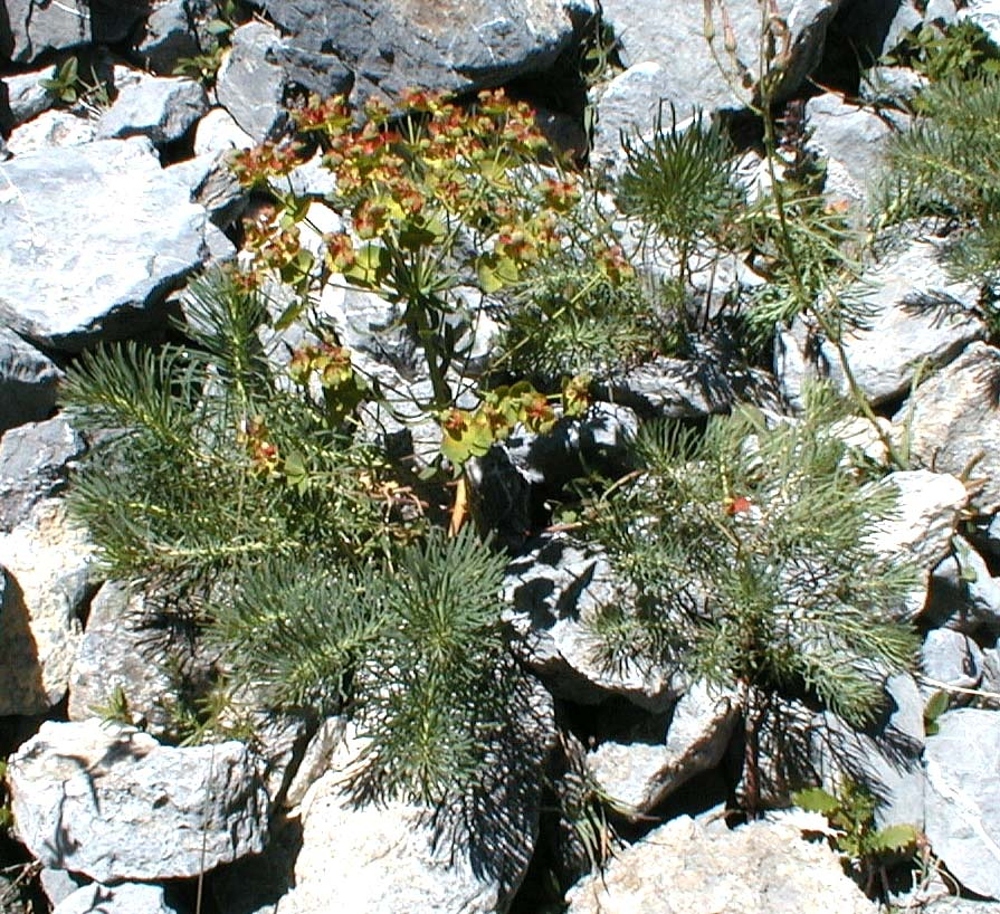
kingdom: Plantae
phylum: Tracheophyta
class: Magnoliopsida
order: Malpighiales
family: Euphorbiaceae
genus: Euphorbia
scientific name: Euphorbia cyparissias
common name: Cypress spurge
